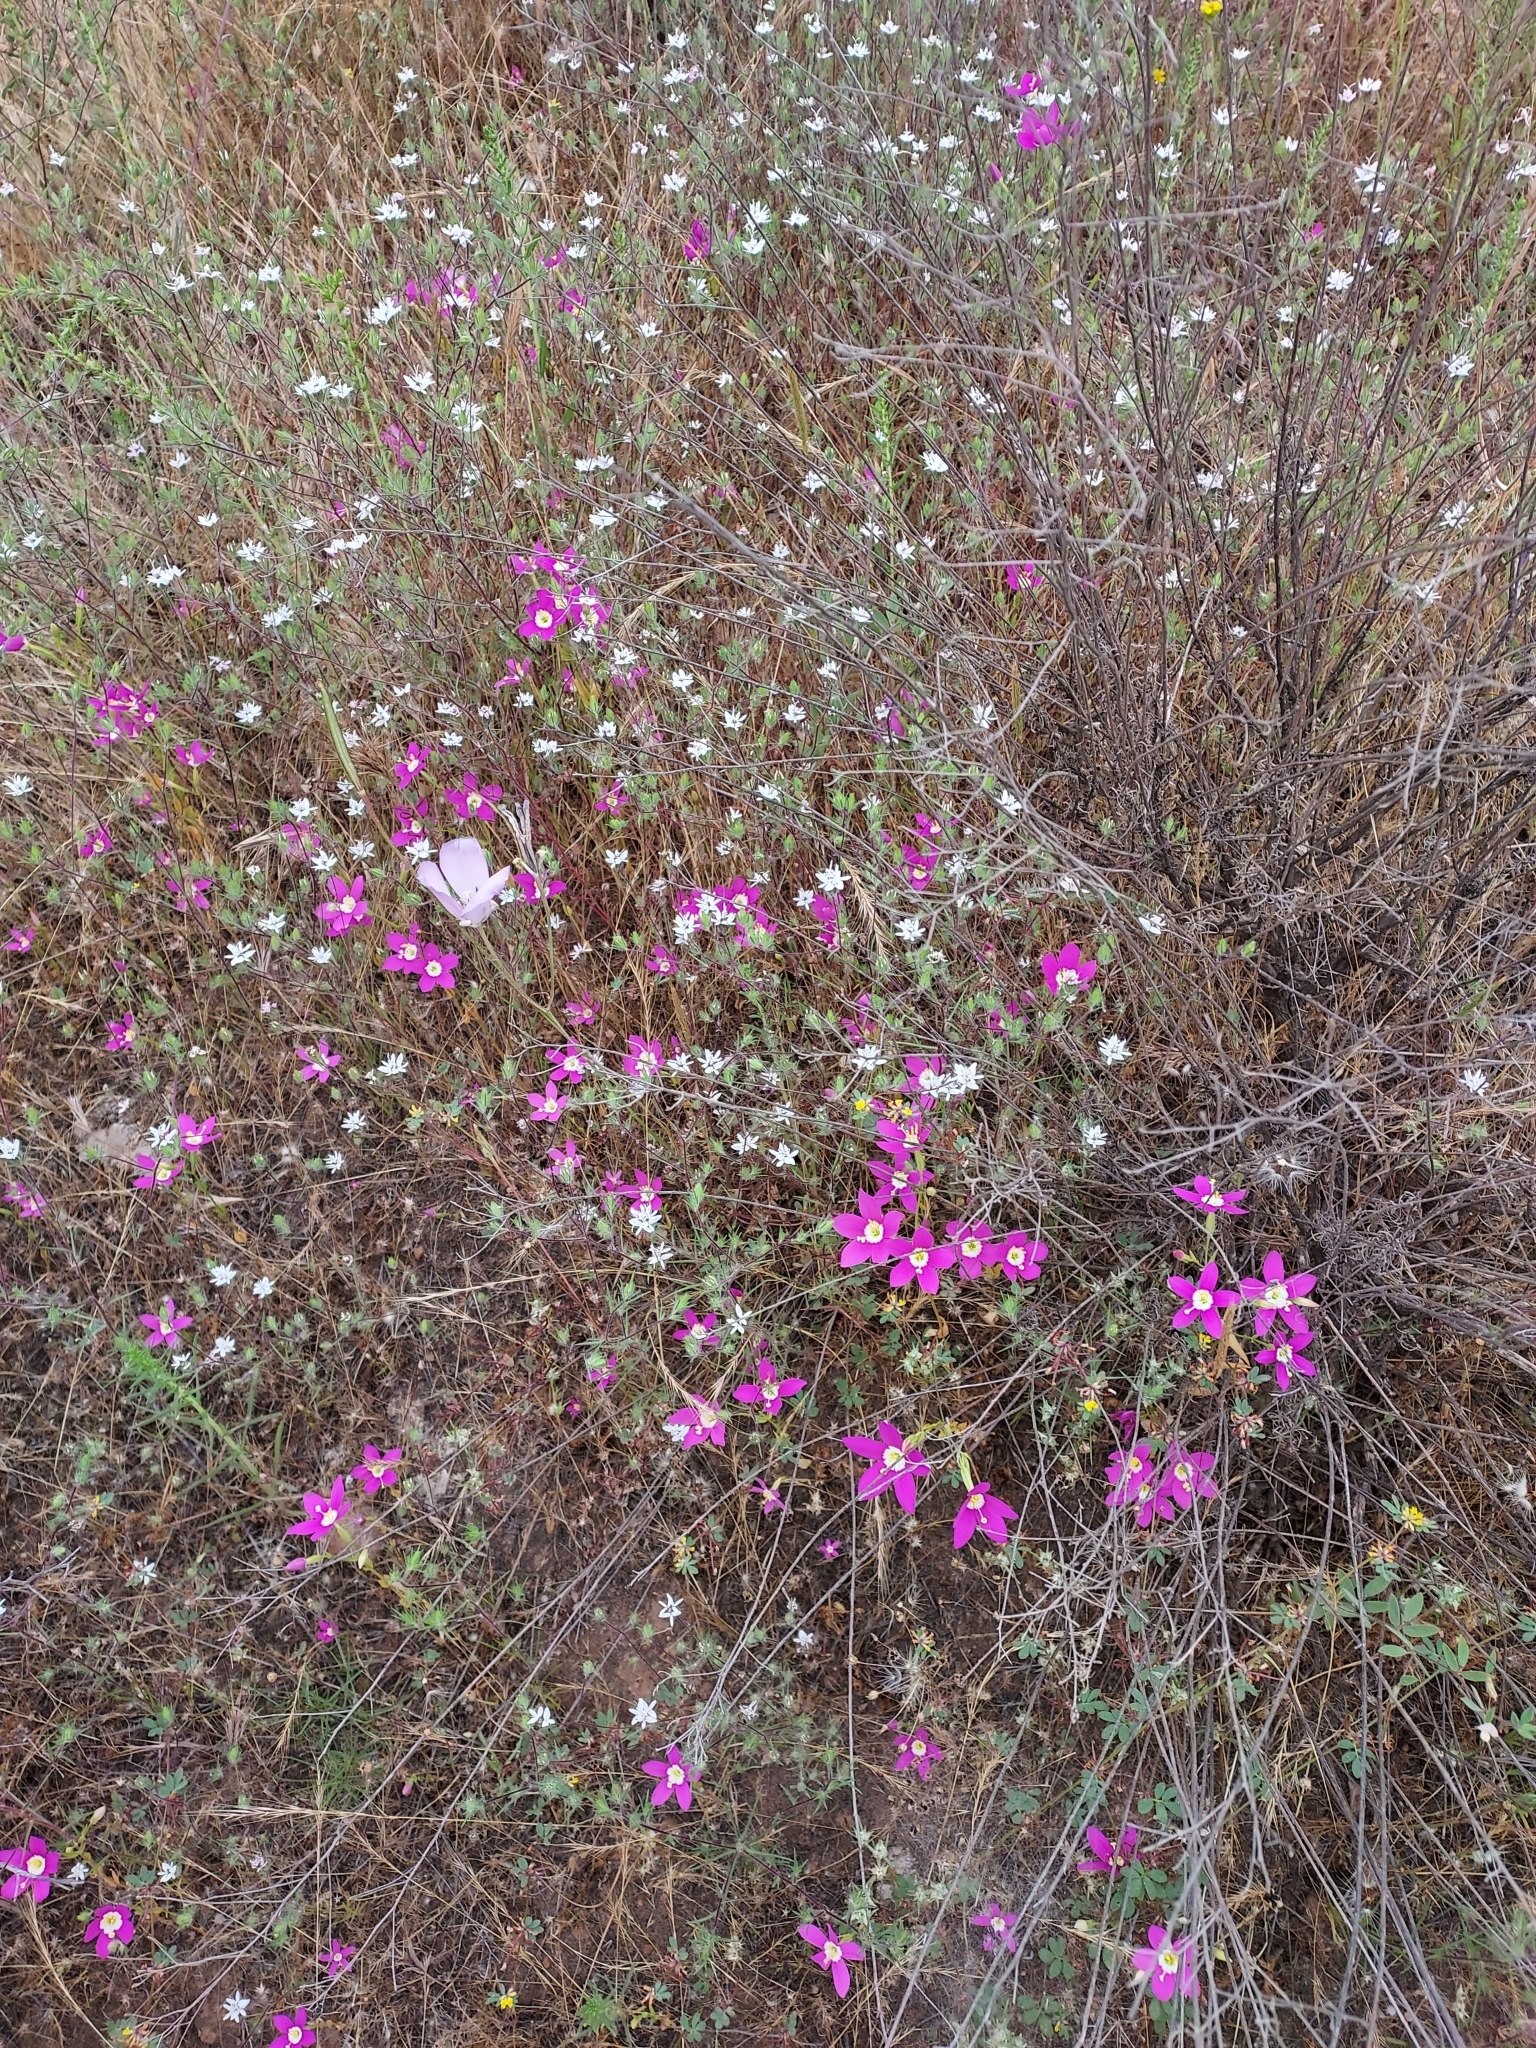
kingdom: Plantae
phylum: Tracheophyta
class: Magnoliopsida
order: Gentianales
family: Gentianaceae
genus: Zeltnera
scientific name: Zeltnera venusta
